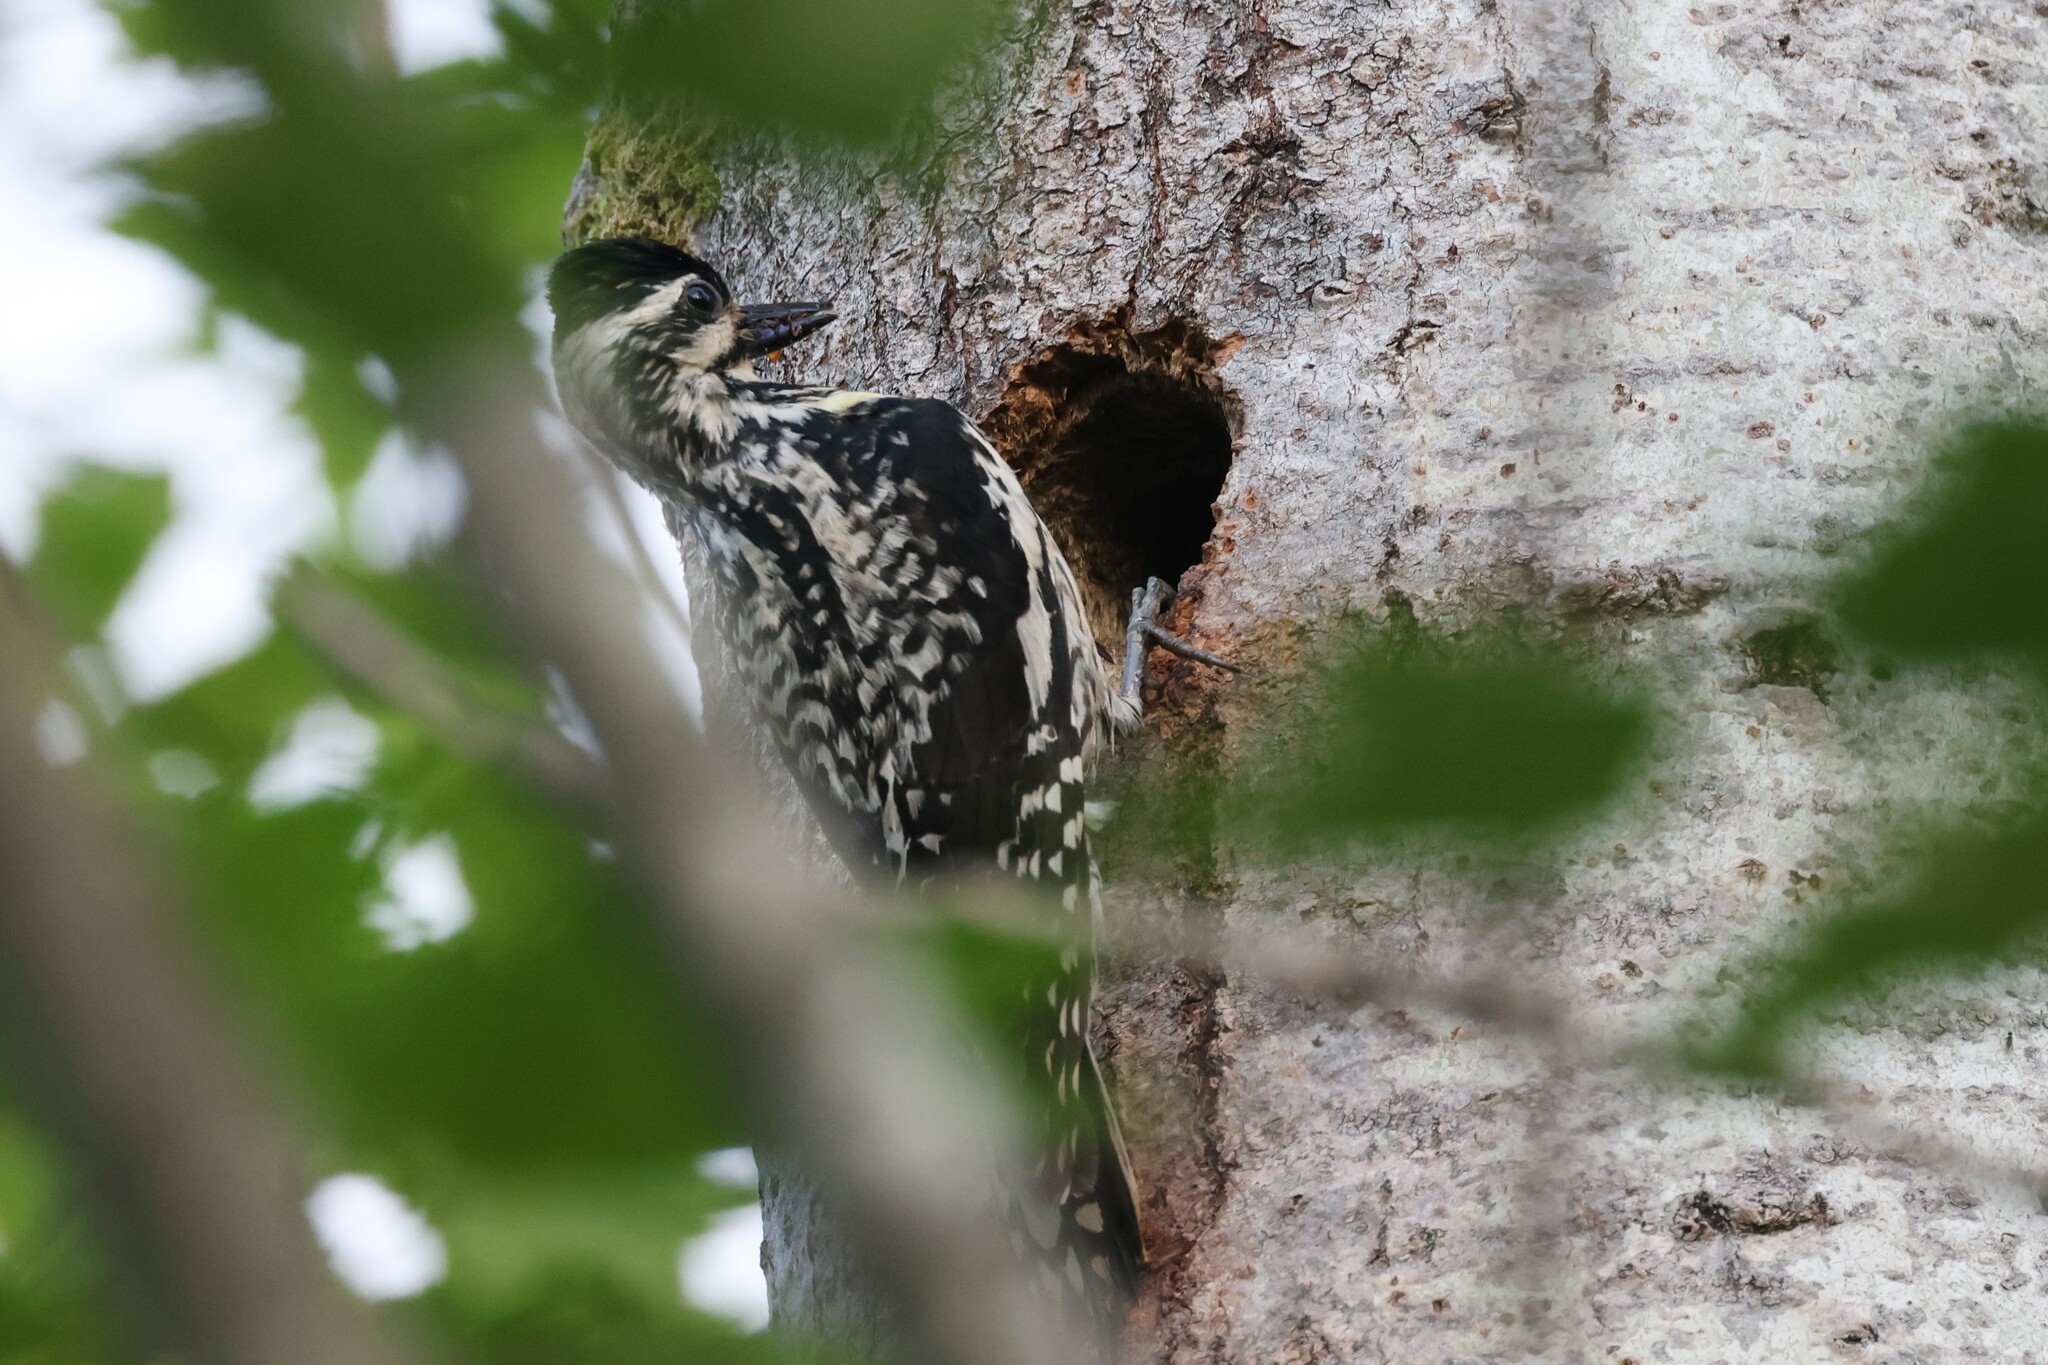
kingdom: Animalia
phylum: Chordata
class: Aves
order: Piciformes
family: Picidae
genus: Sphyrapicus
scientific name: Sphyrapicus varius
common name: Yellow-bellied sapsucker
